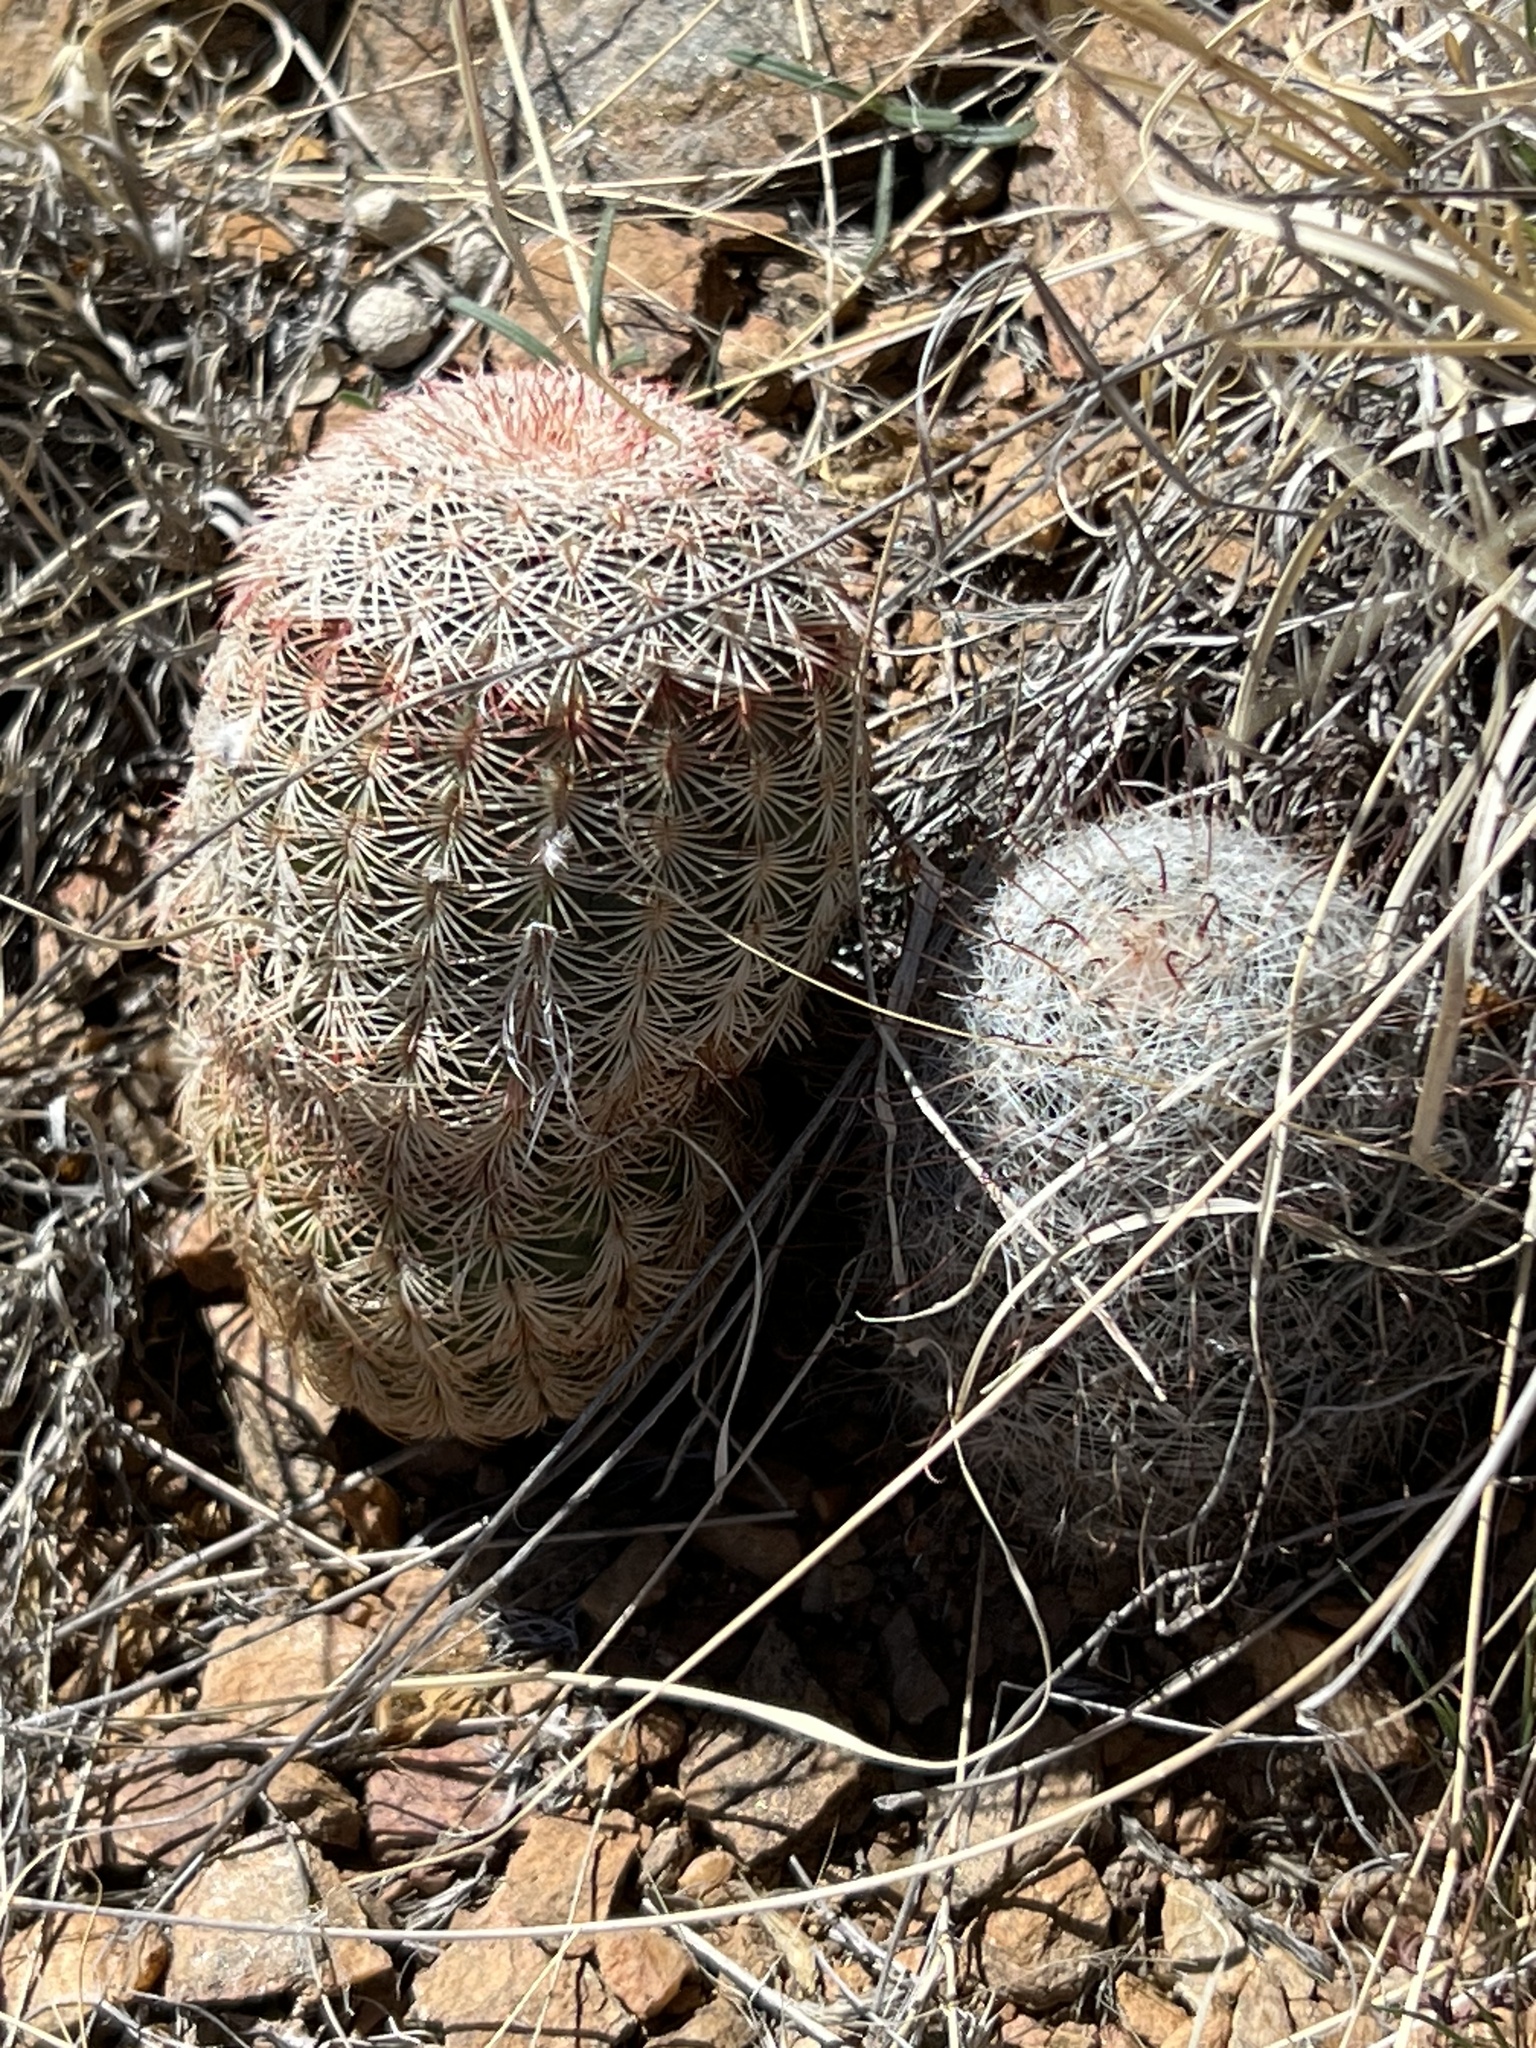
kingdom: Plantae
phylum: Tracheophyta
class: Magnoliopsida
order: Caryophyllales
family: Cactaceae
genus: Echinocereus
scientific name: Echinocereus rigidissimus
